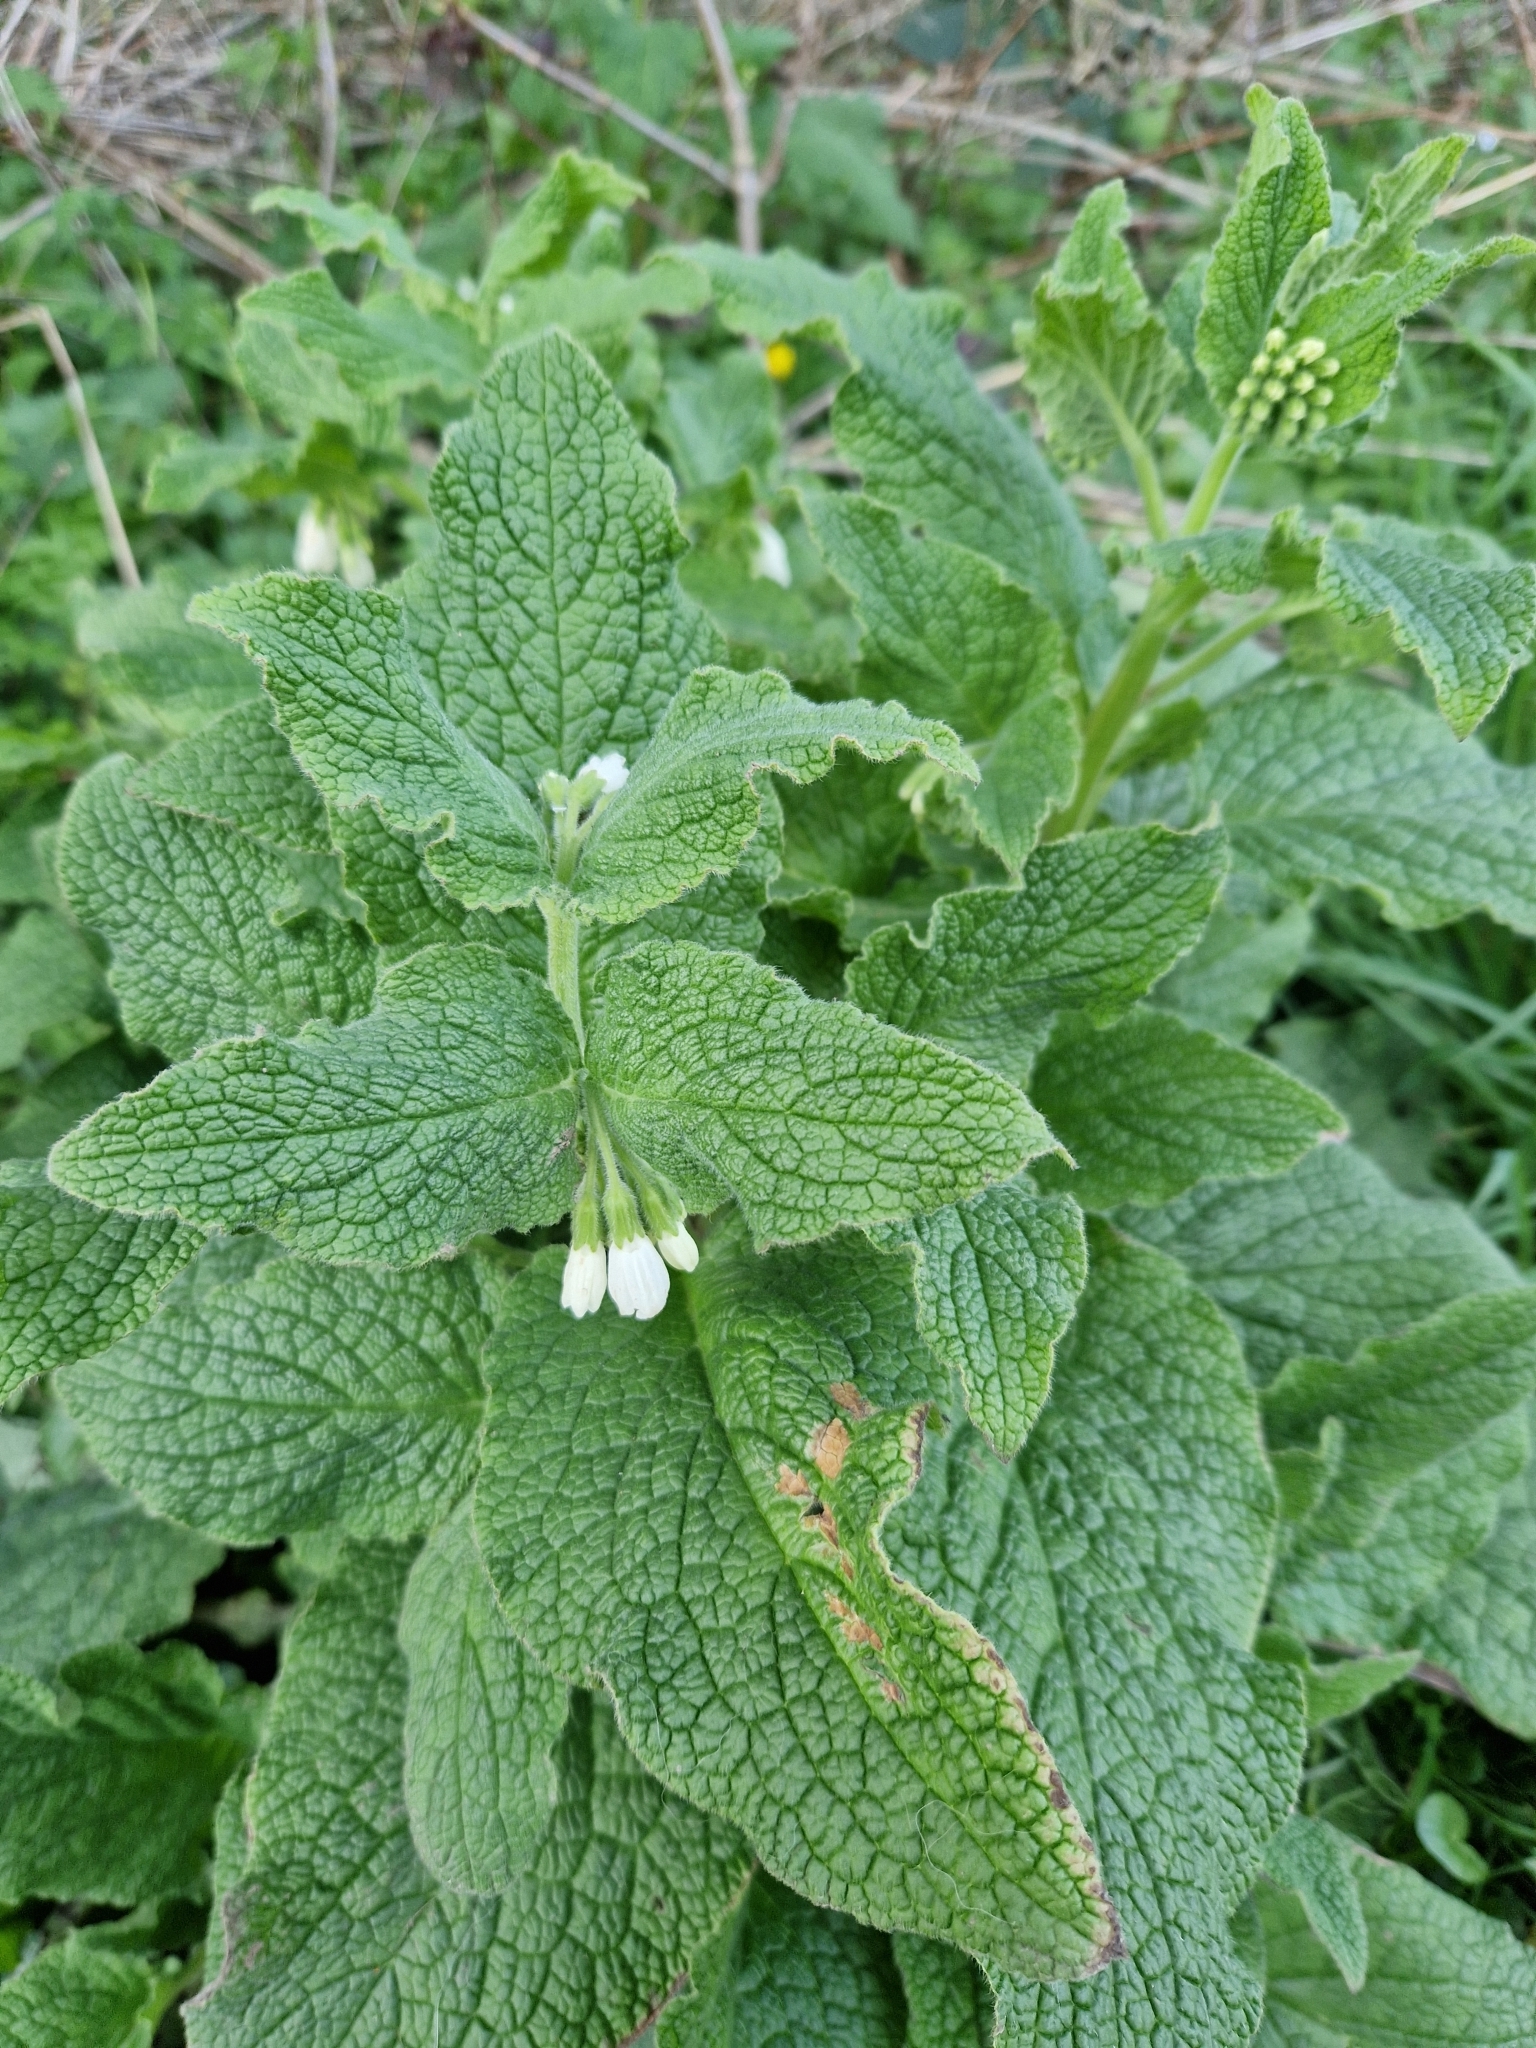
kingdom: Plantae
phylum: Tracheophyta
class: Magnoliopsida
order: Boraginales
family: Boraginaceae
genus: Symphytum
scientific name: Symphytum orientale
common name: White comfrey
